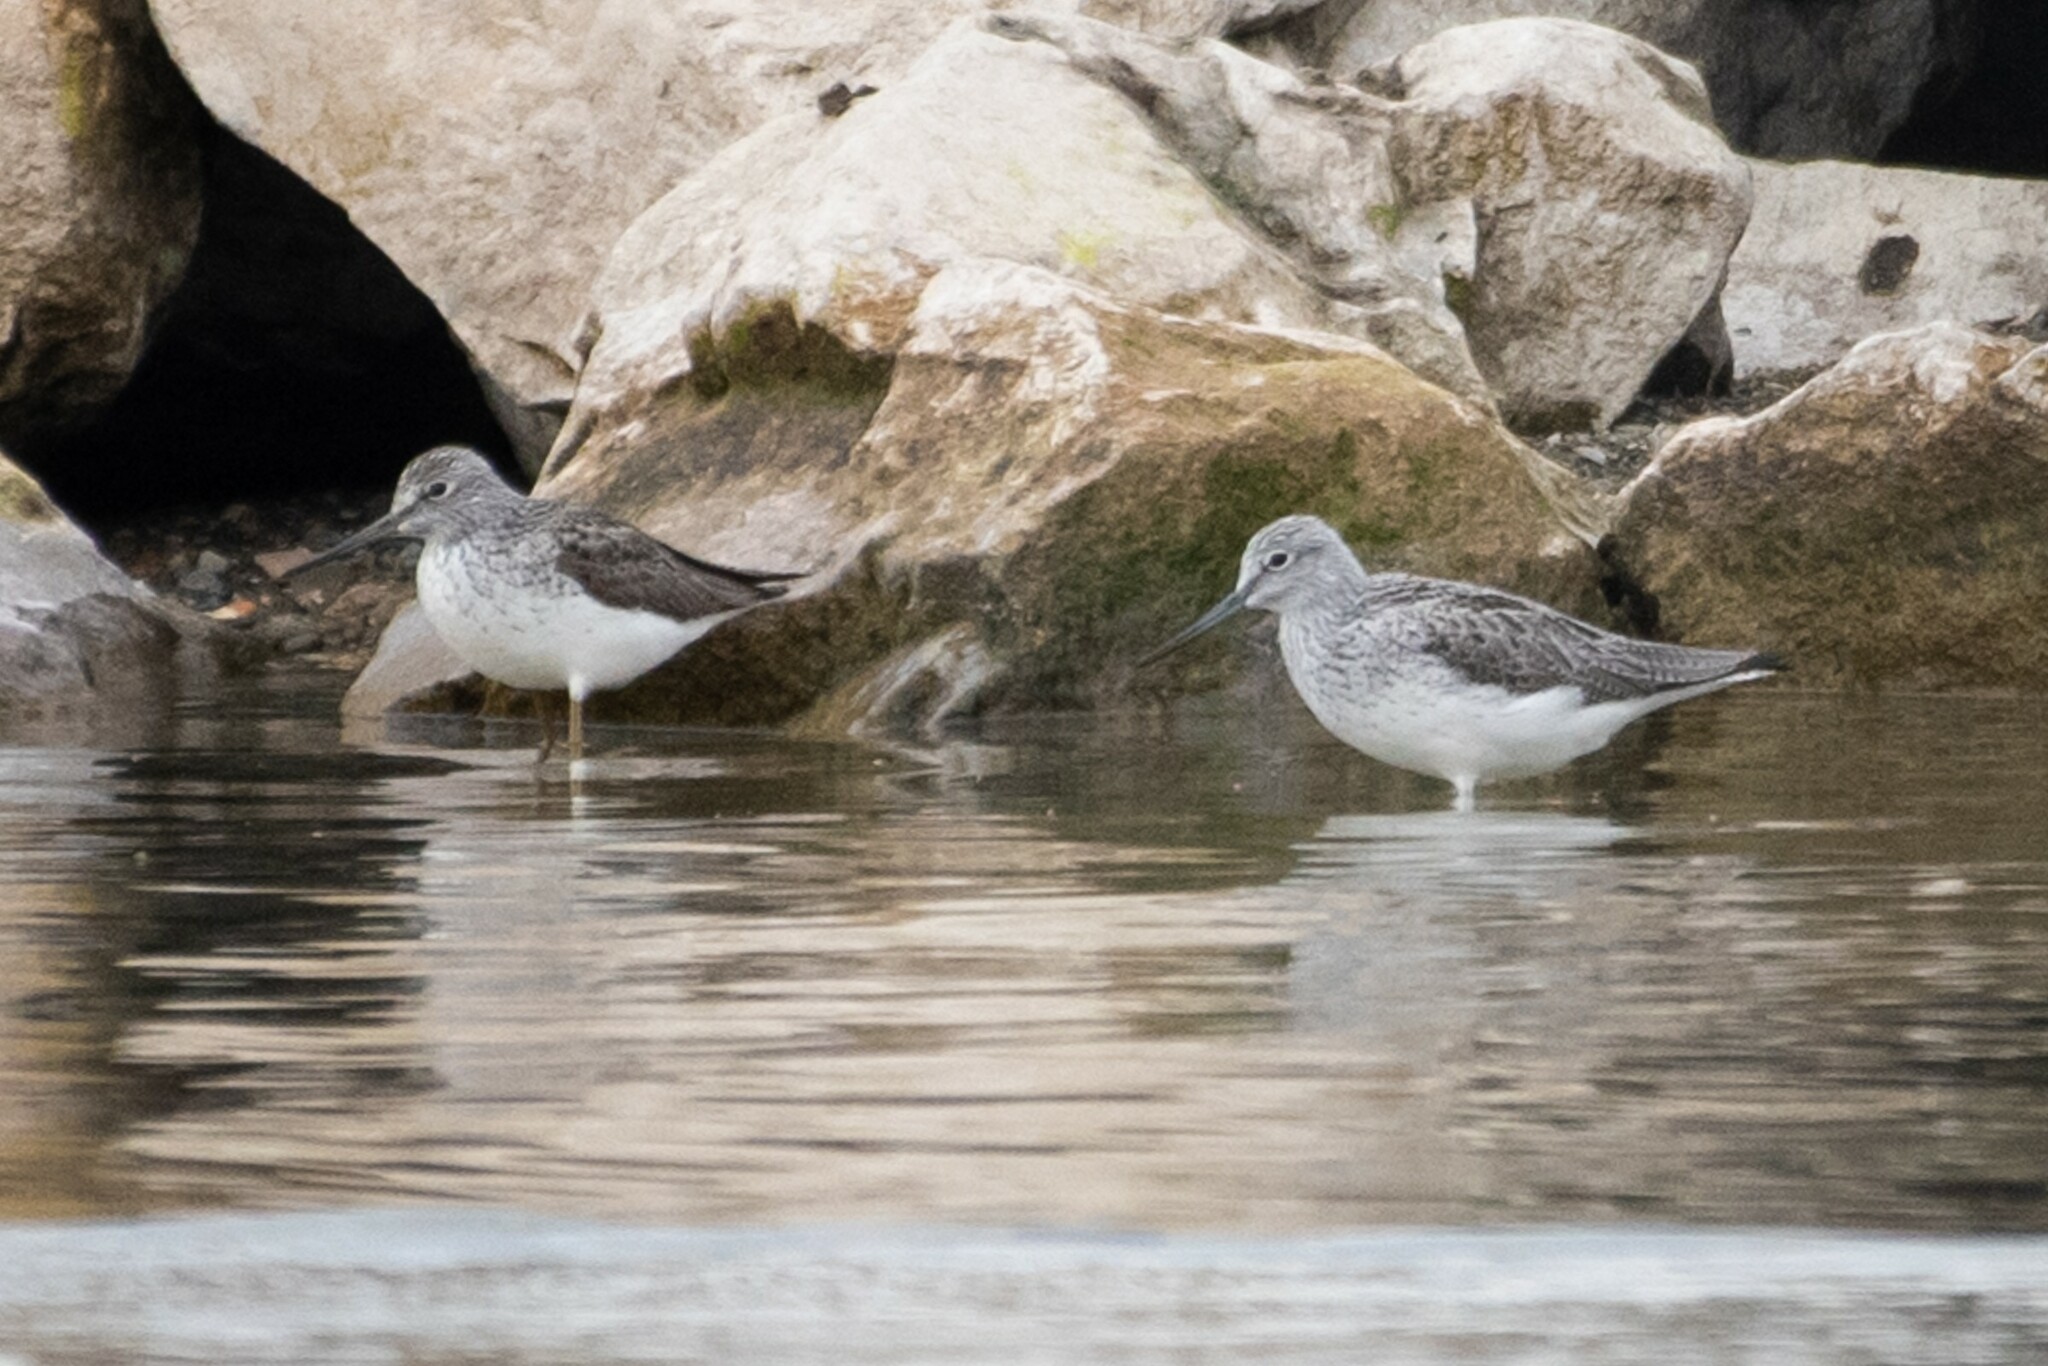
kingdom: Animalia
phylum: Chordata
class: Aves
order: Charadriiformes
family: Scolopacidae
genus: Tringa
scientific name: Tringa nebularia
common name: Common greenshank
